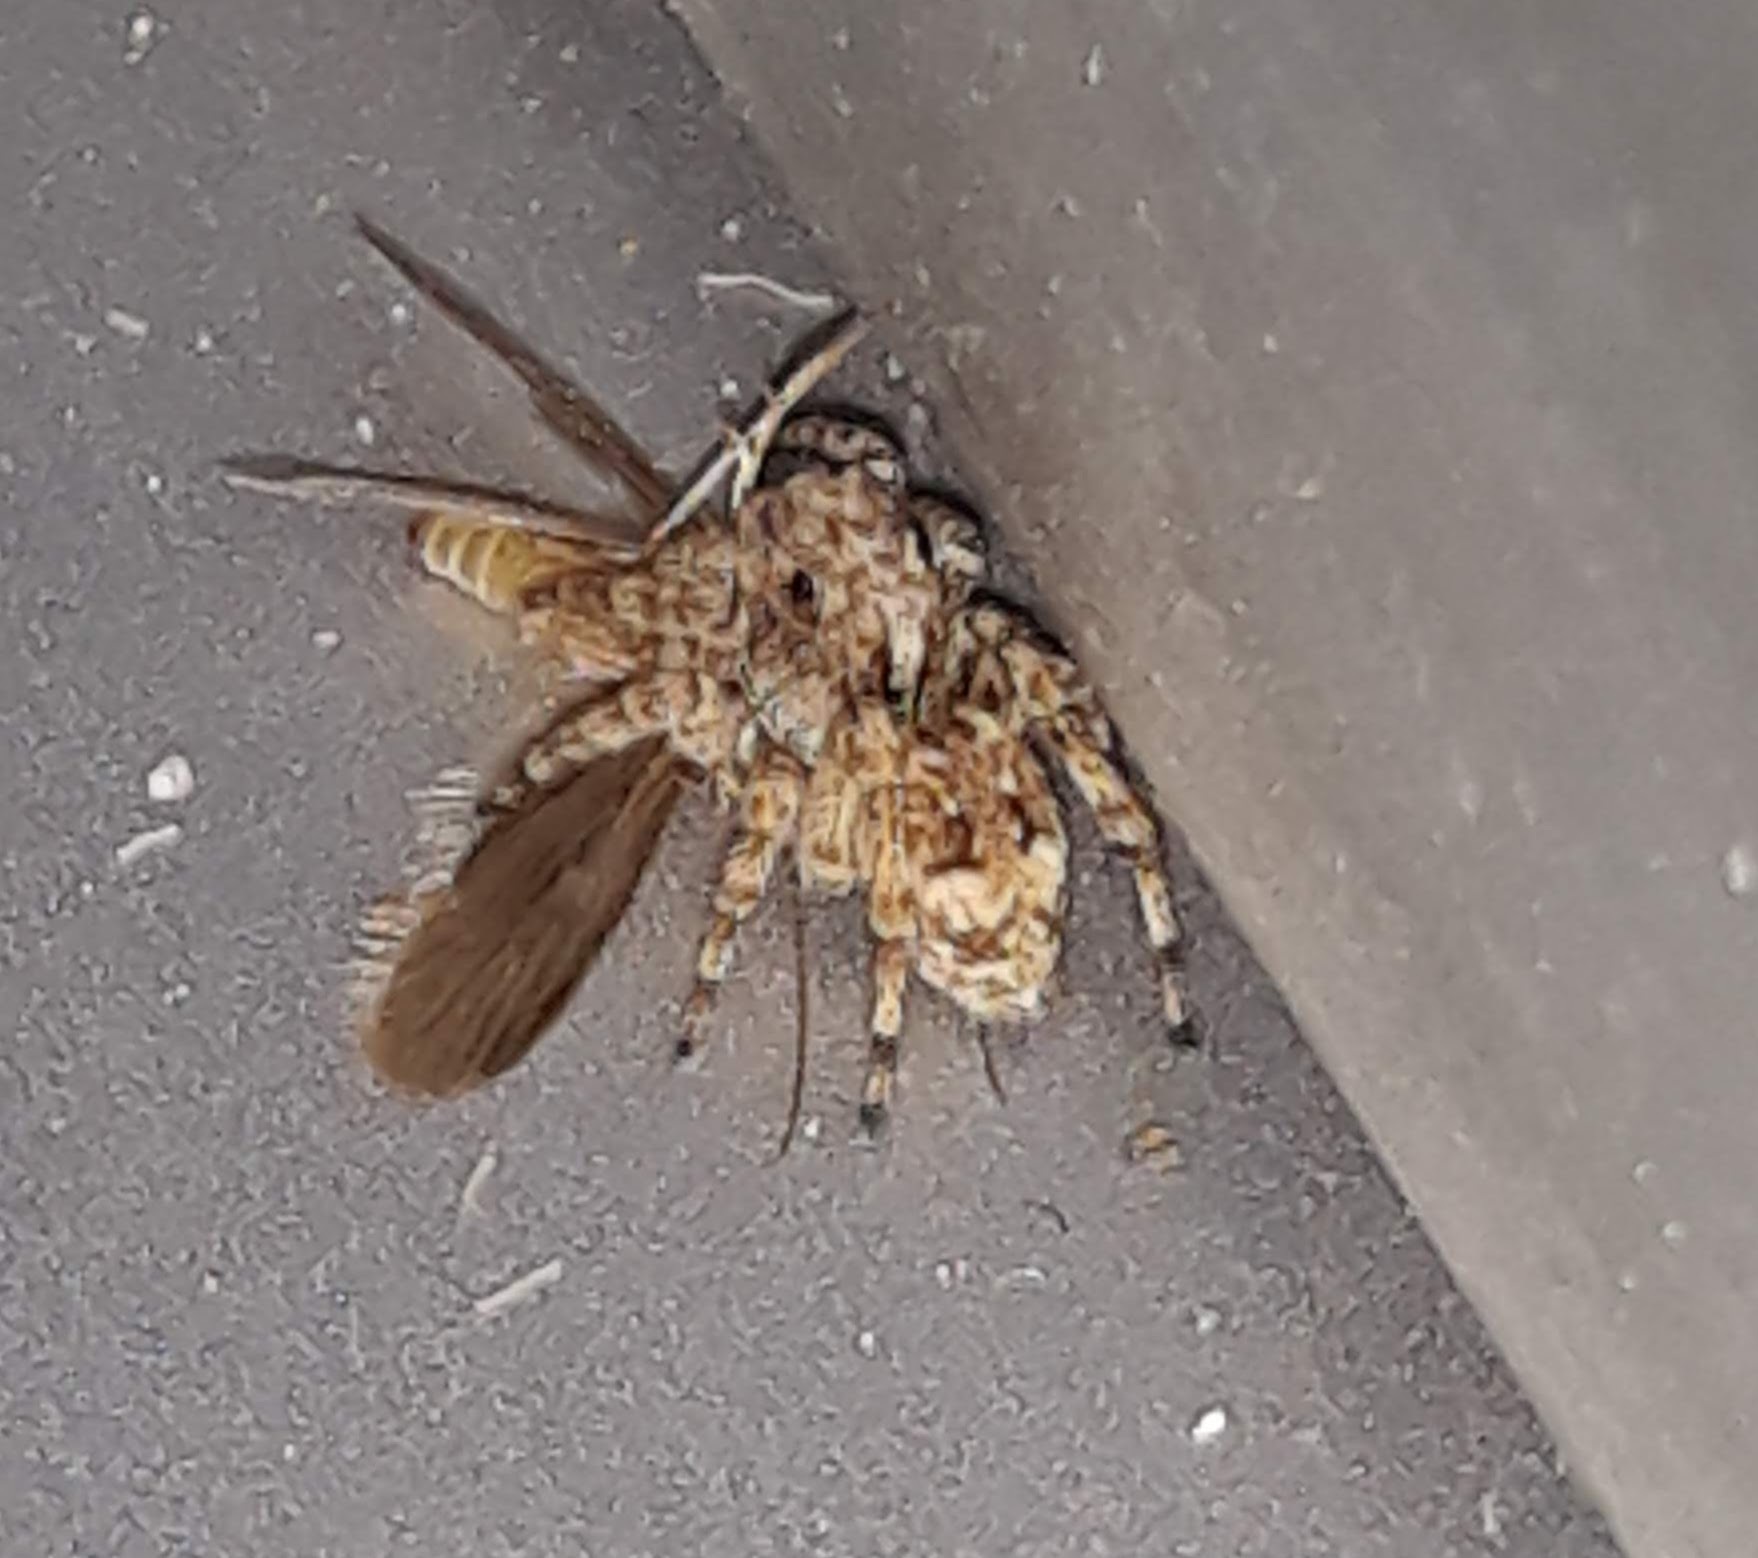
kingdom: Animalia
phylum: Arthropoda
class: Arachnida
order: Araneae
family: Salticidae
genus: Attulus
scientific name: Attulus fasciger
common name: Asiatic wall jumping spider
